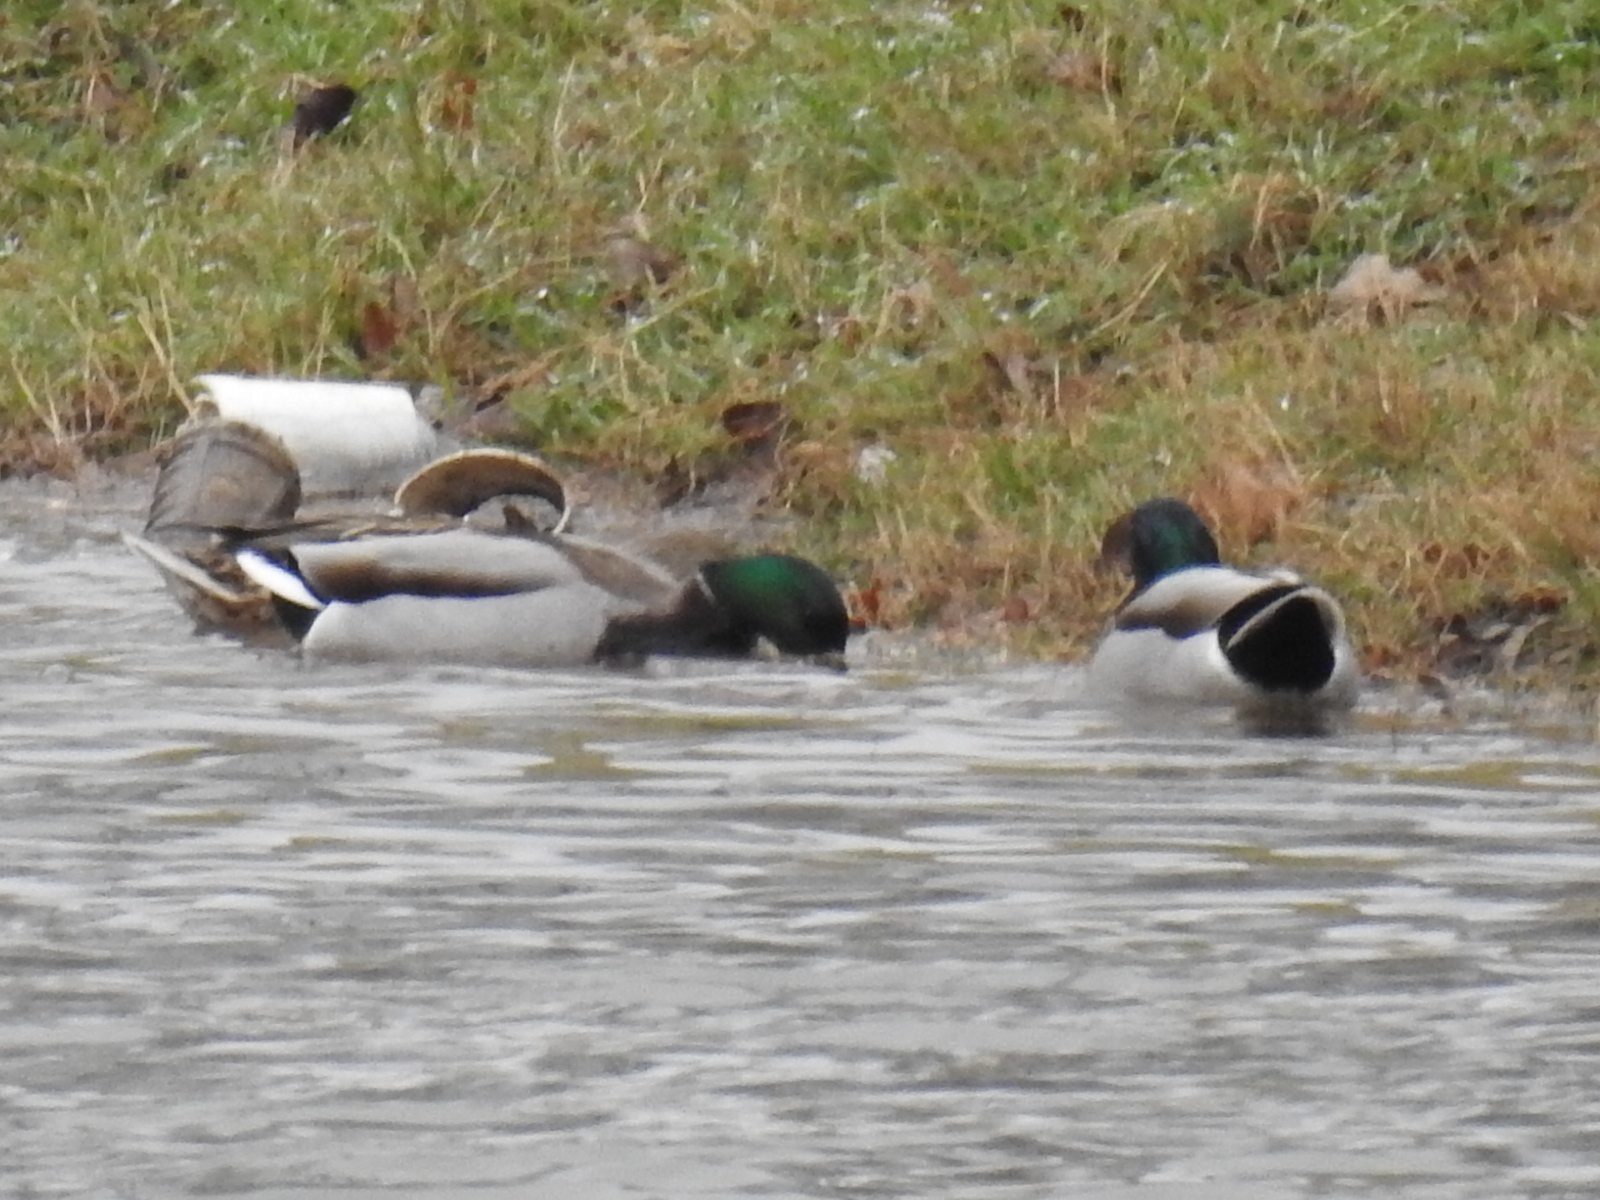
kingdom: Animalia
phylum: Chordata
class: Aves
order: Anseriformes
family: Anatidae
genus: Anas
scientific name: Anas platyrhynchos
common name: Mallard
